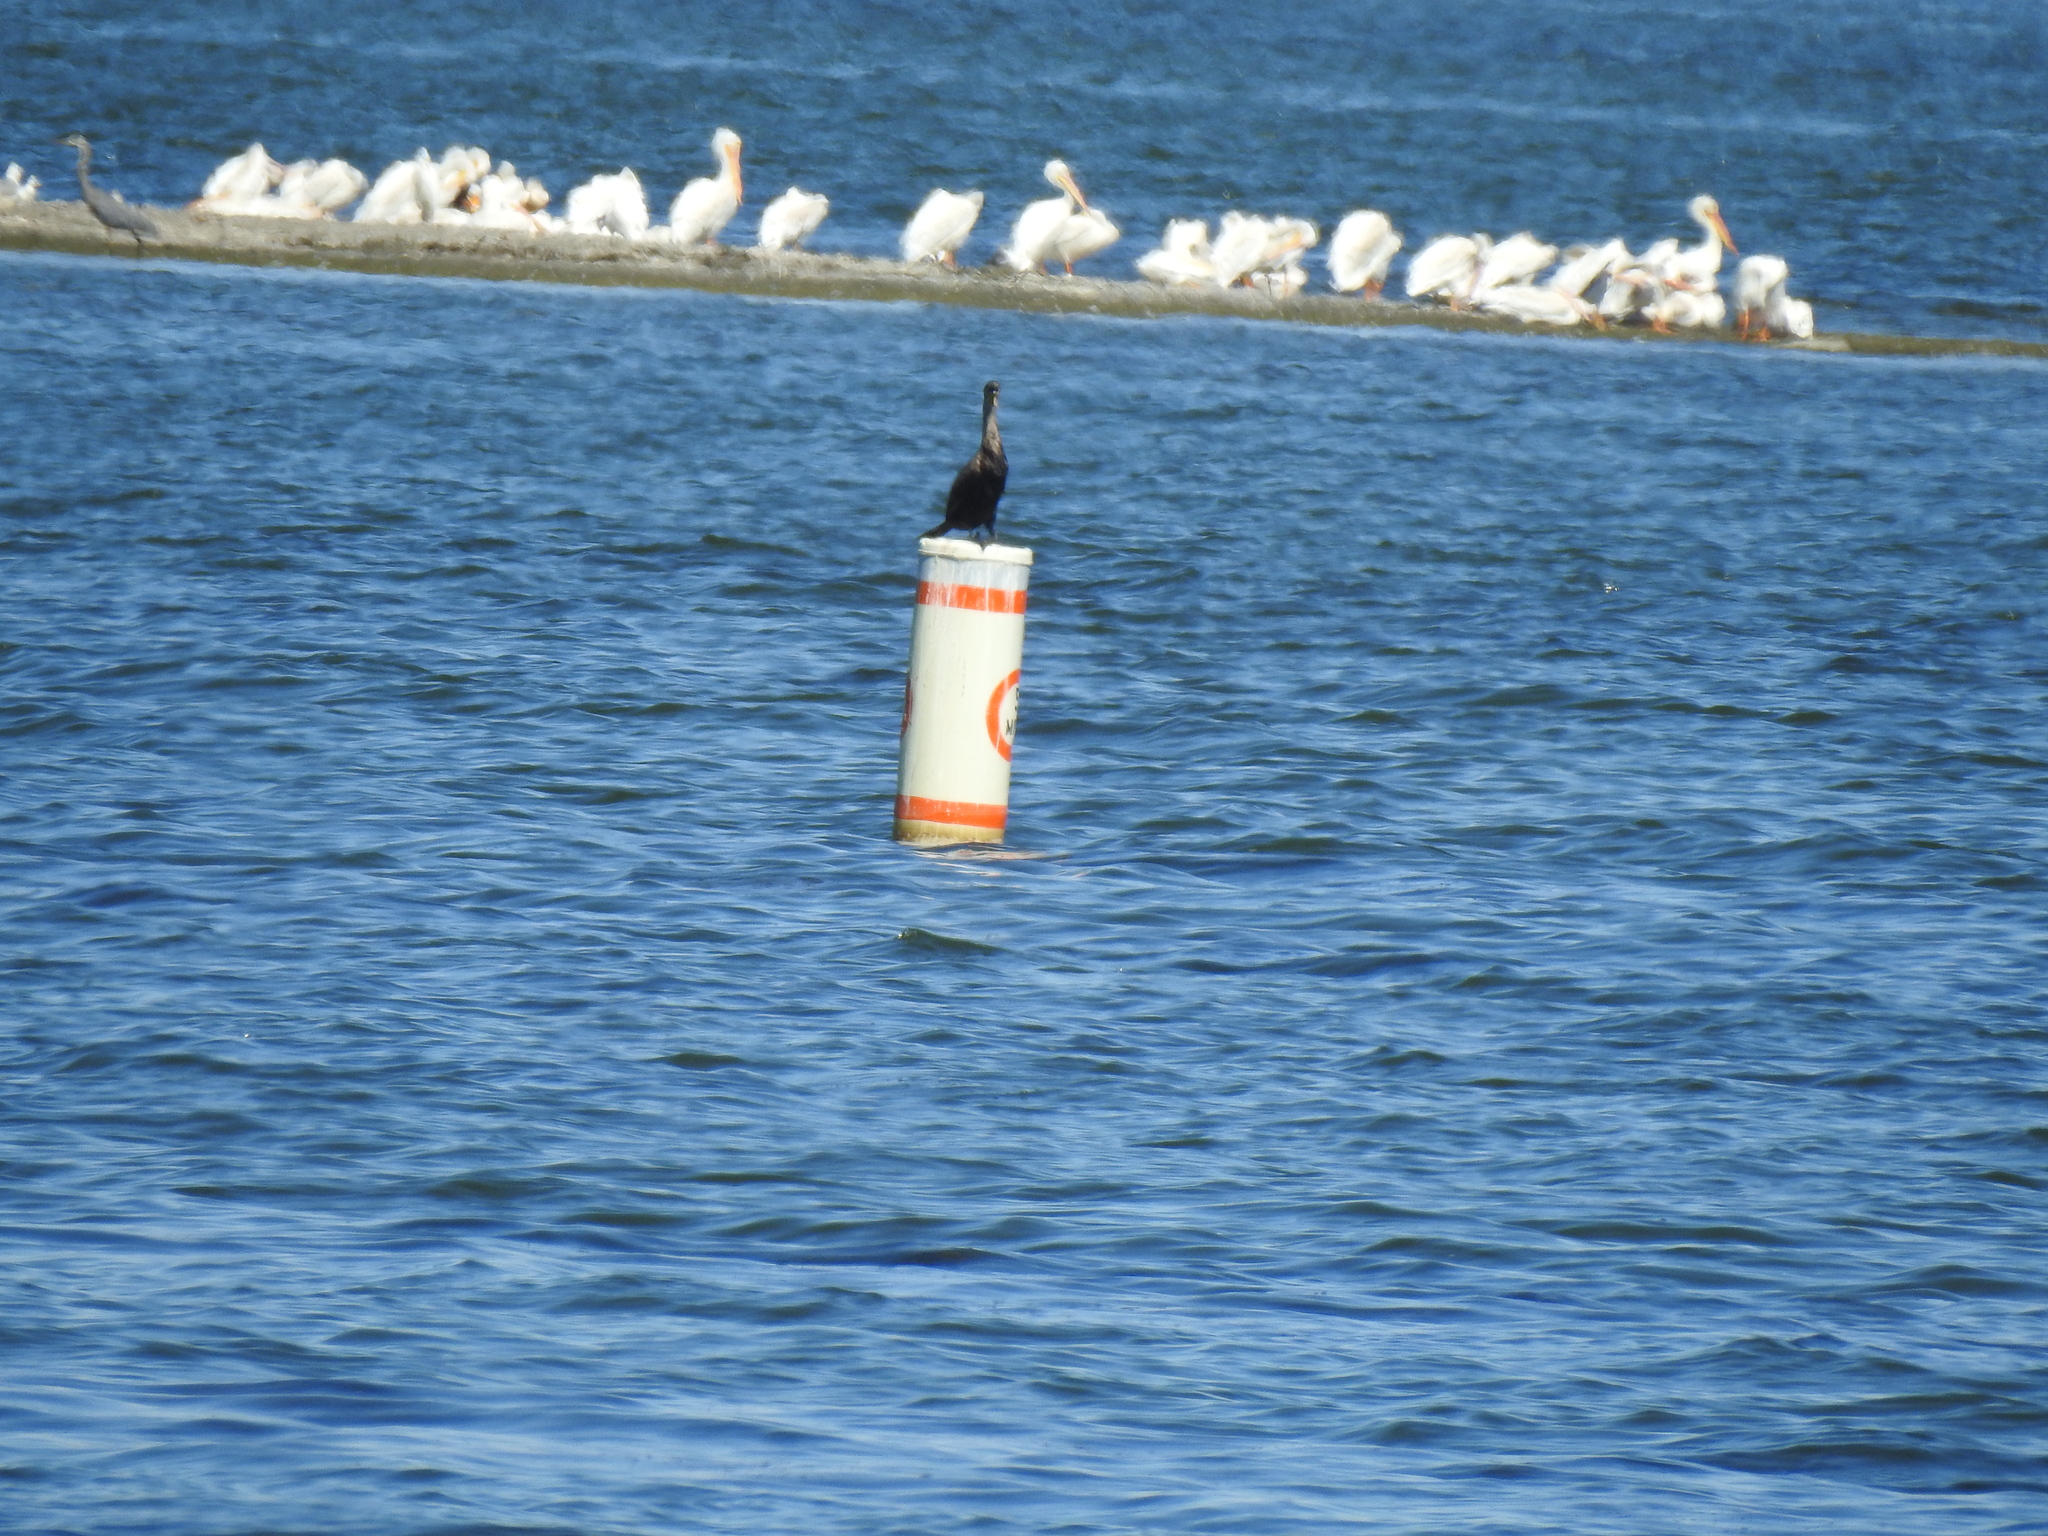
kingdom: Animalia
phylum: Chordata
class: Aves
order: Suliformes
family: Phalacrocoracidae
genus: Phalacrocorax
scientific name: Phalacrocorax auritus
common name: Double-crested cormorant
